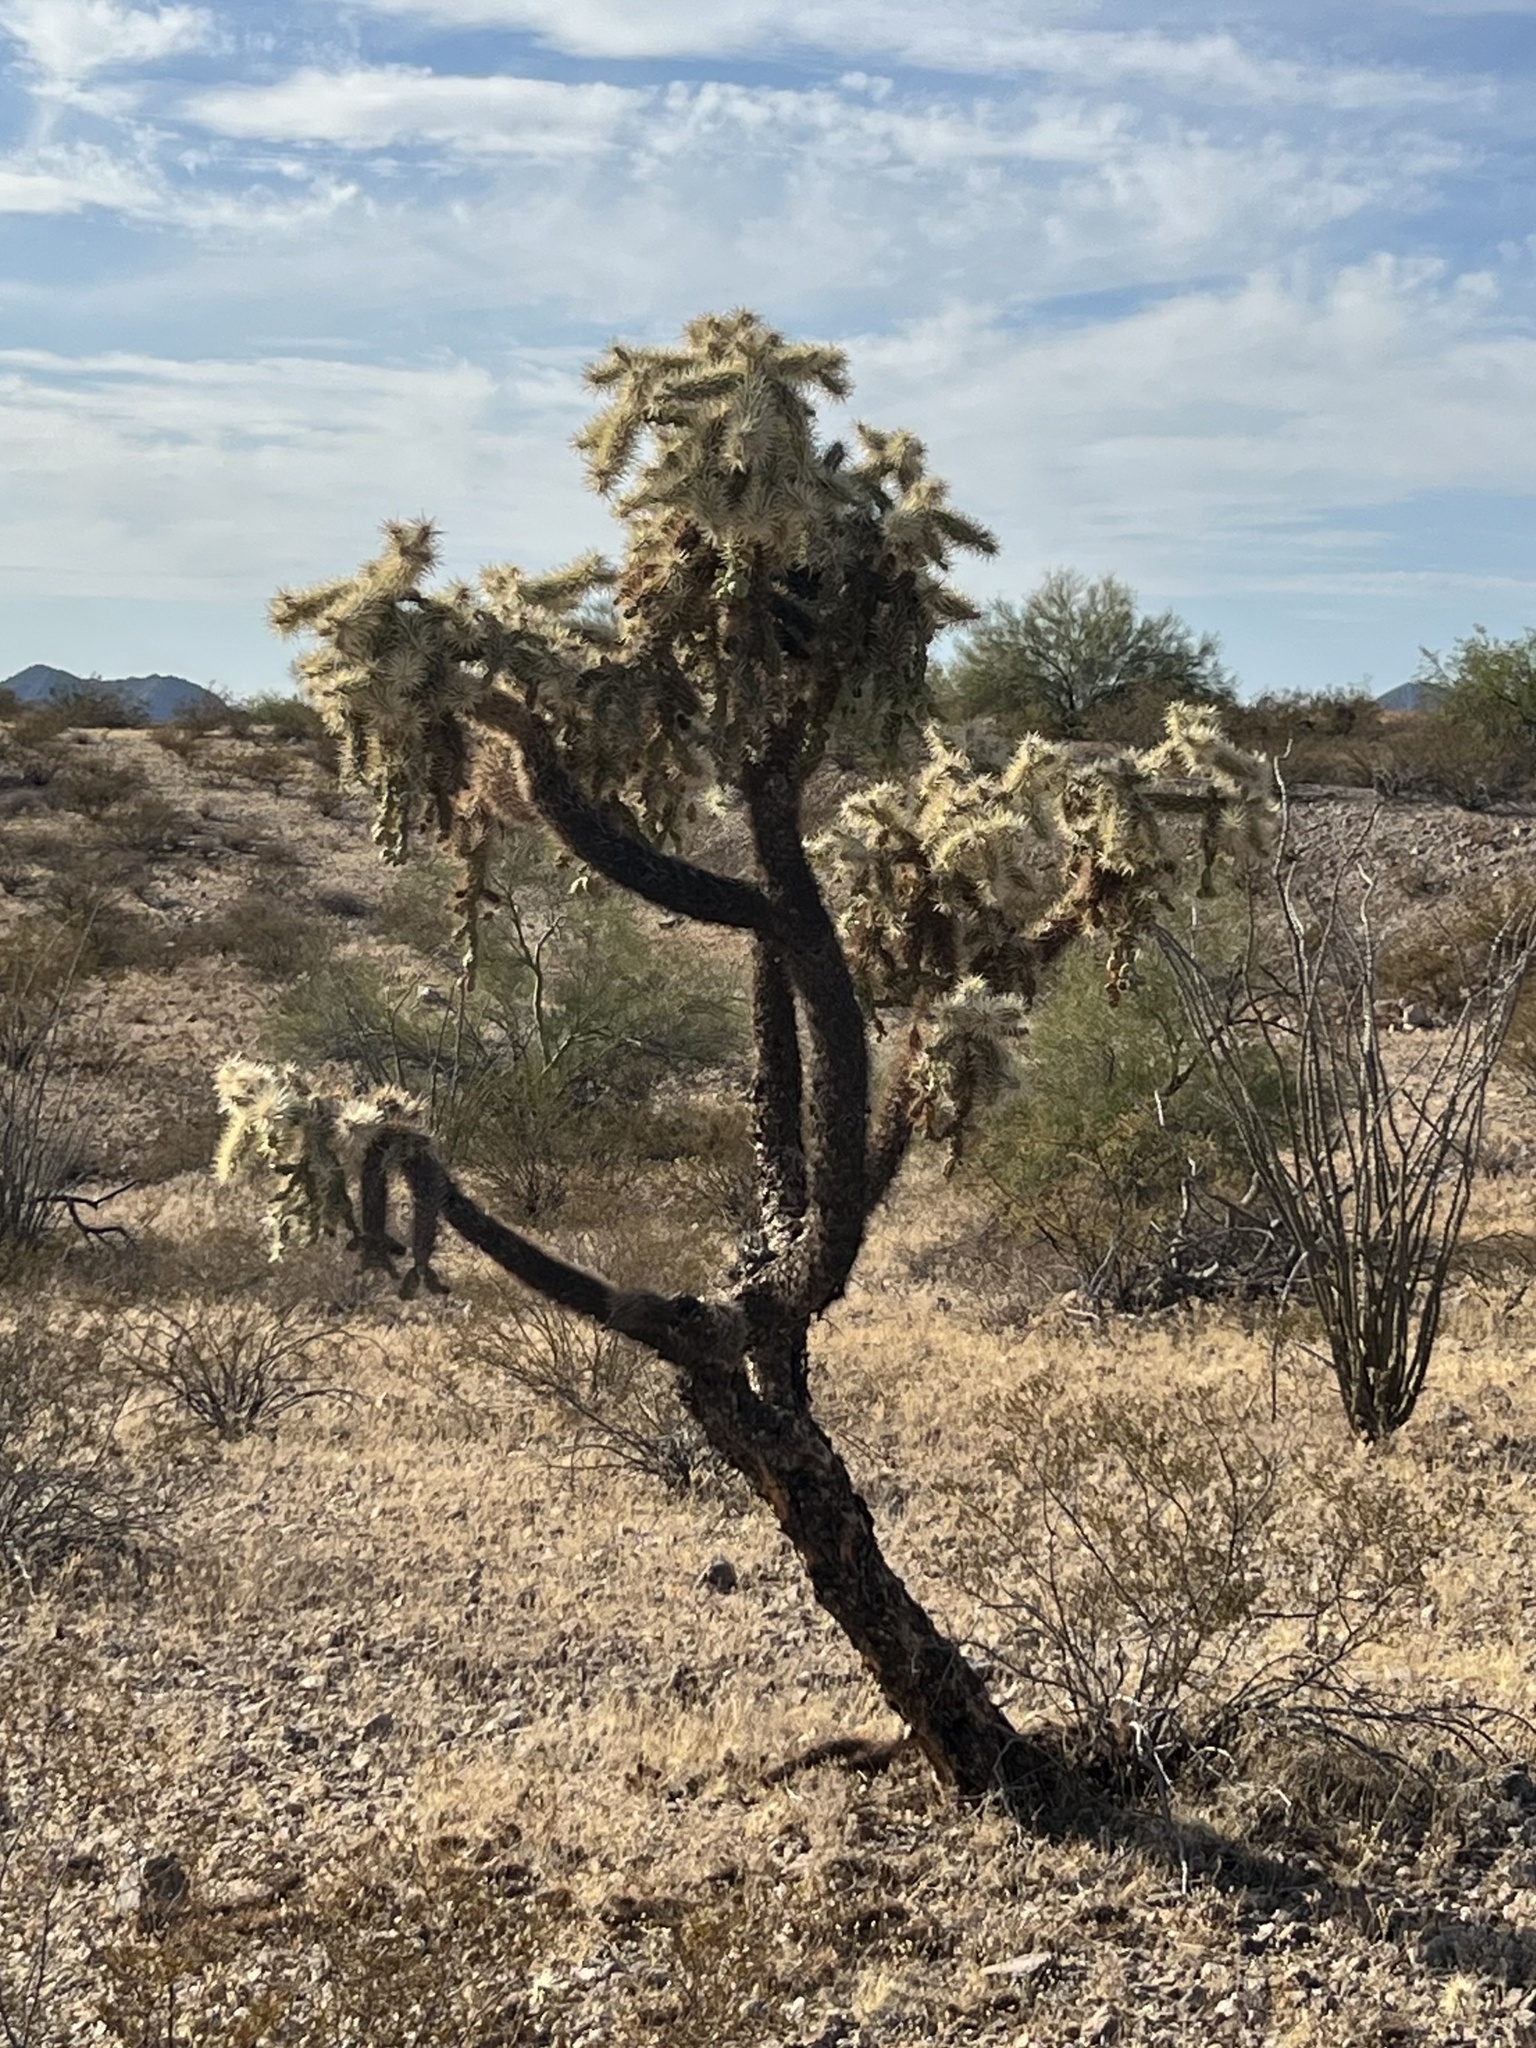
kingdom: Plantae
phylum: Tracheophyta
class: Magnoliopsida
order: Caryophyllales
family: Cactaceae
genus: Cylindropuntia
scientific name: Cylindropuntia fulgida
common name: Jumping cholla
